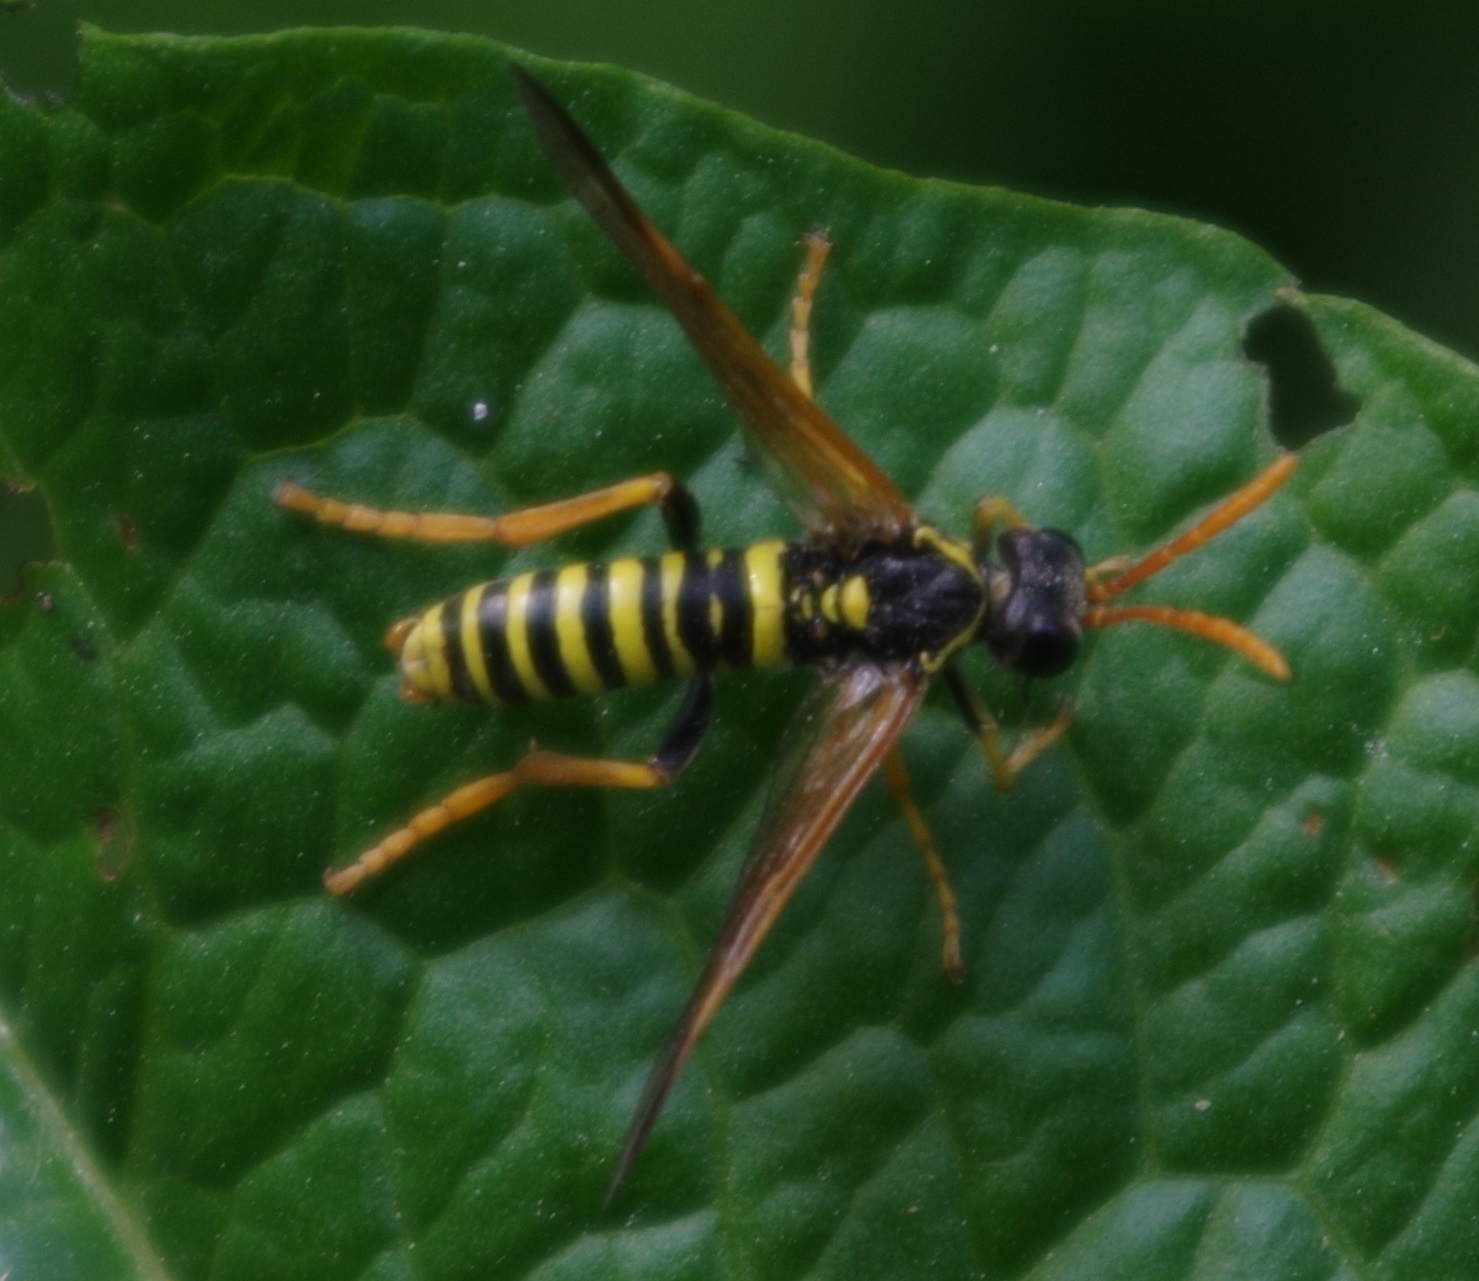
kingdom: Animalia
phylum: Arthropoda
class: Insecta
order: Hymenoptera
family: Tenthredinidae
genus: Tenthredo
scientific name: Tenthredo scrophulariae
